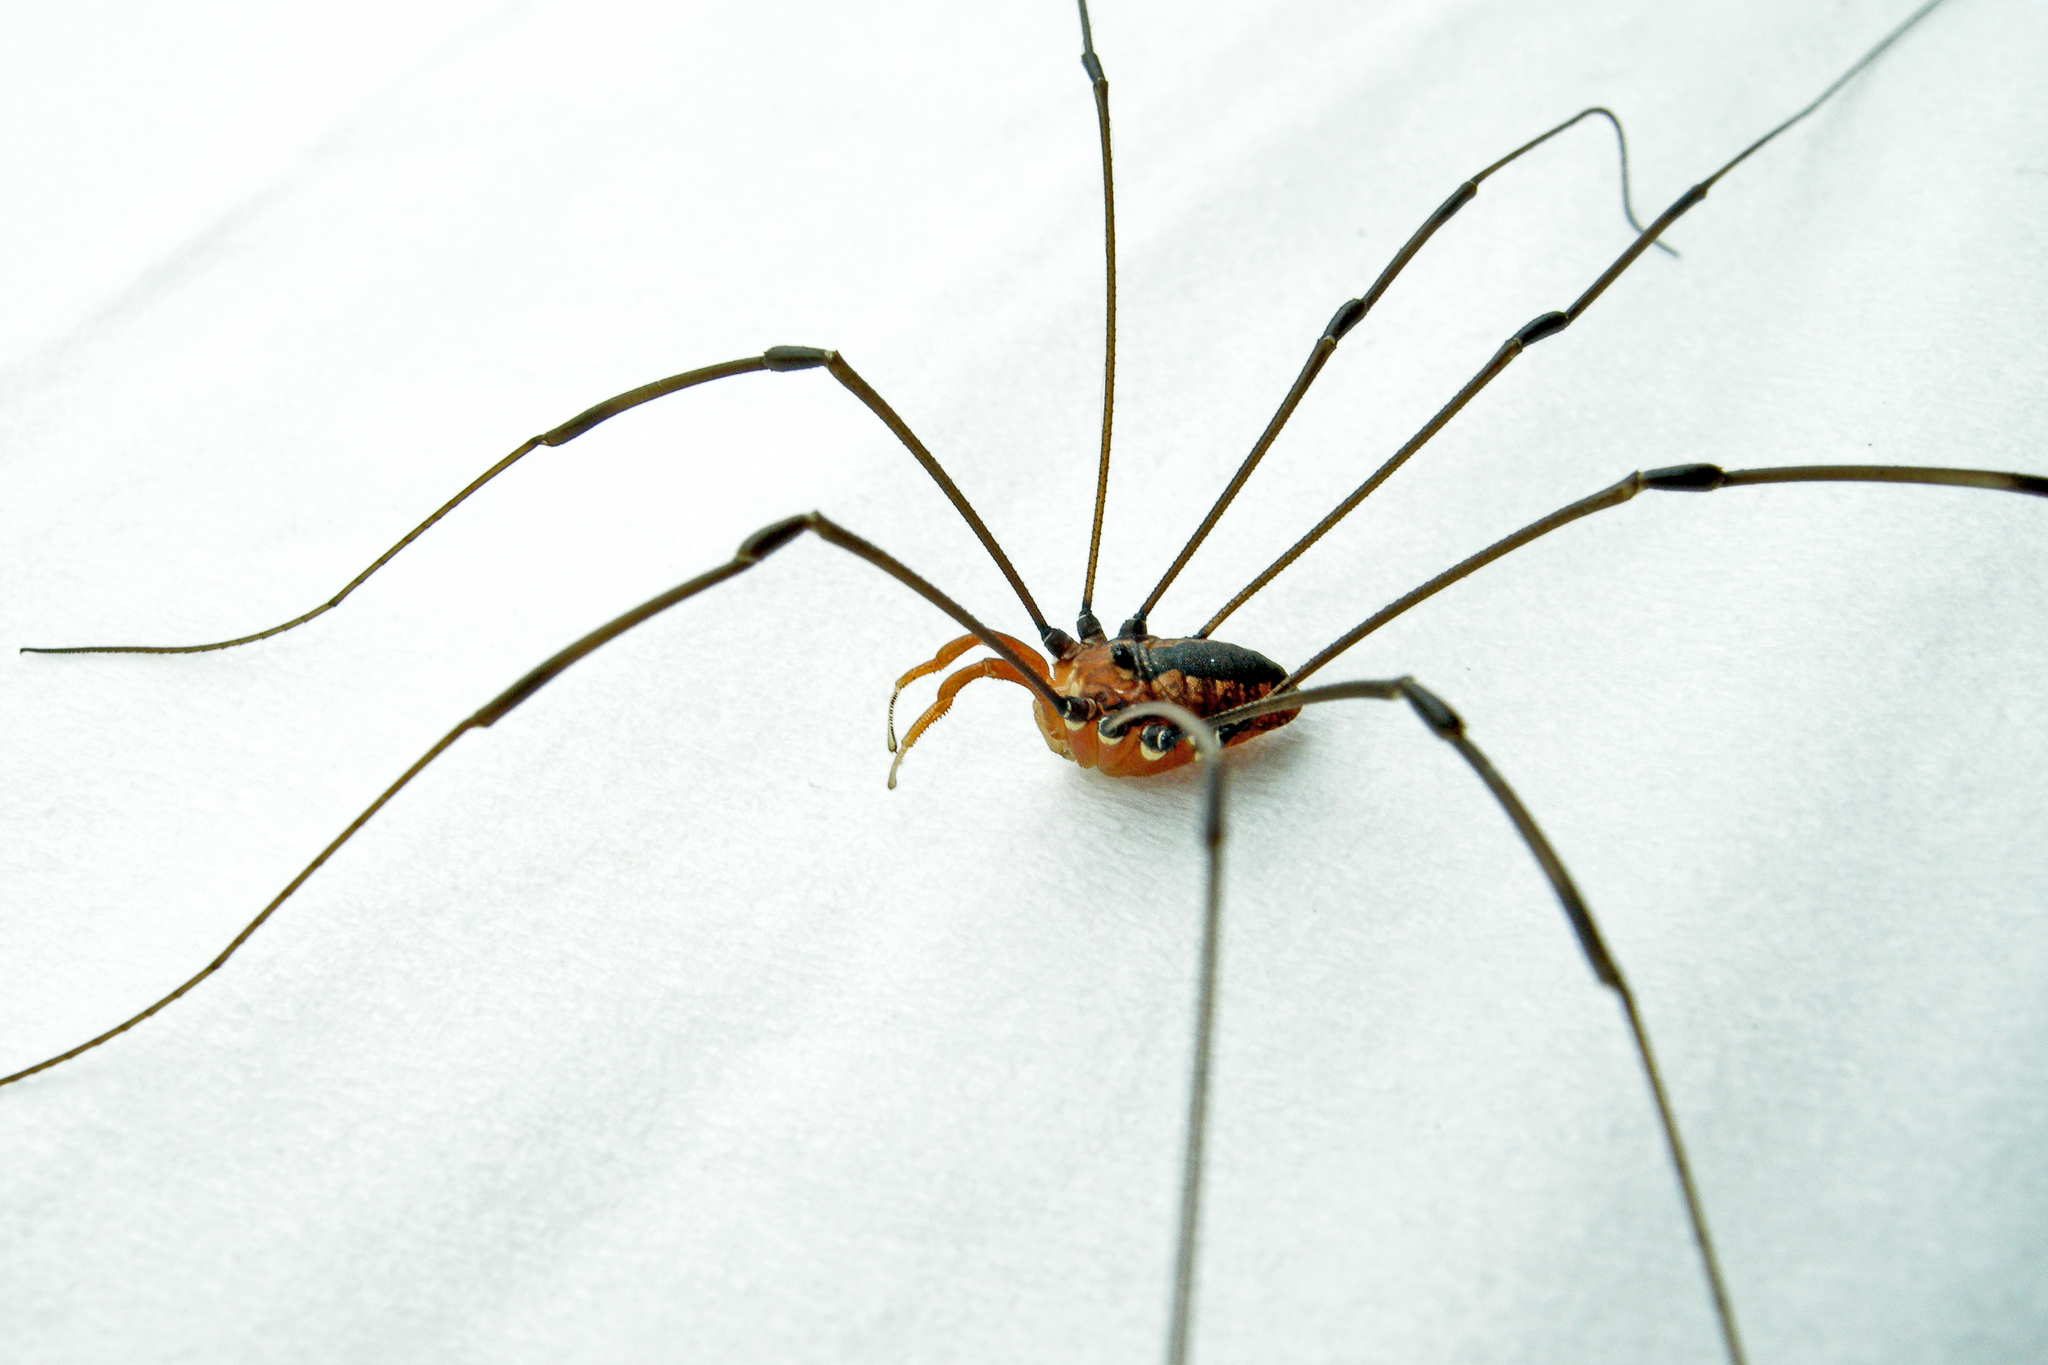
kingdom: Animalia
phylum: Arthropoda
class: Arachnida
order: Opiliones
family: Sclerosomatidae
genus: Leiobunum
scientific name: Leiobunum vittatum
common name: Eastern harvestman
